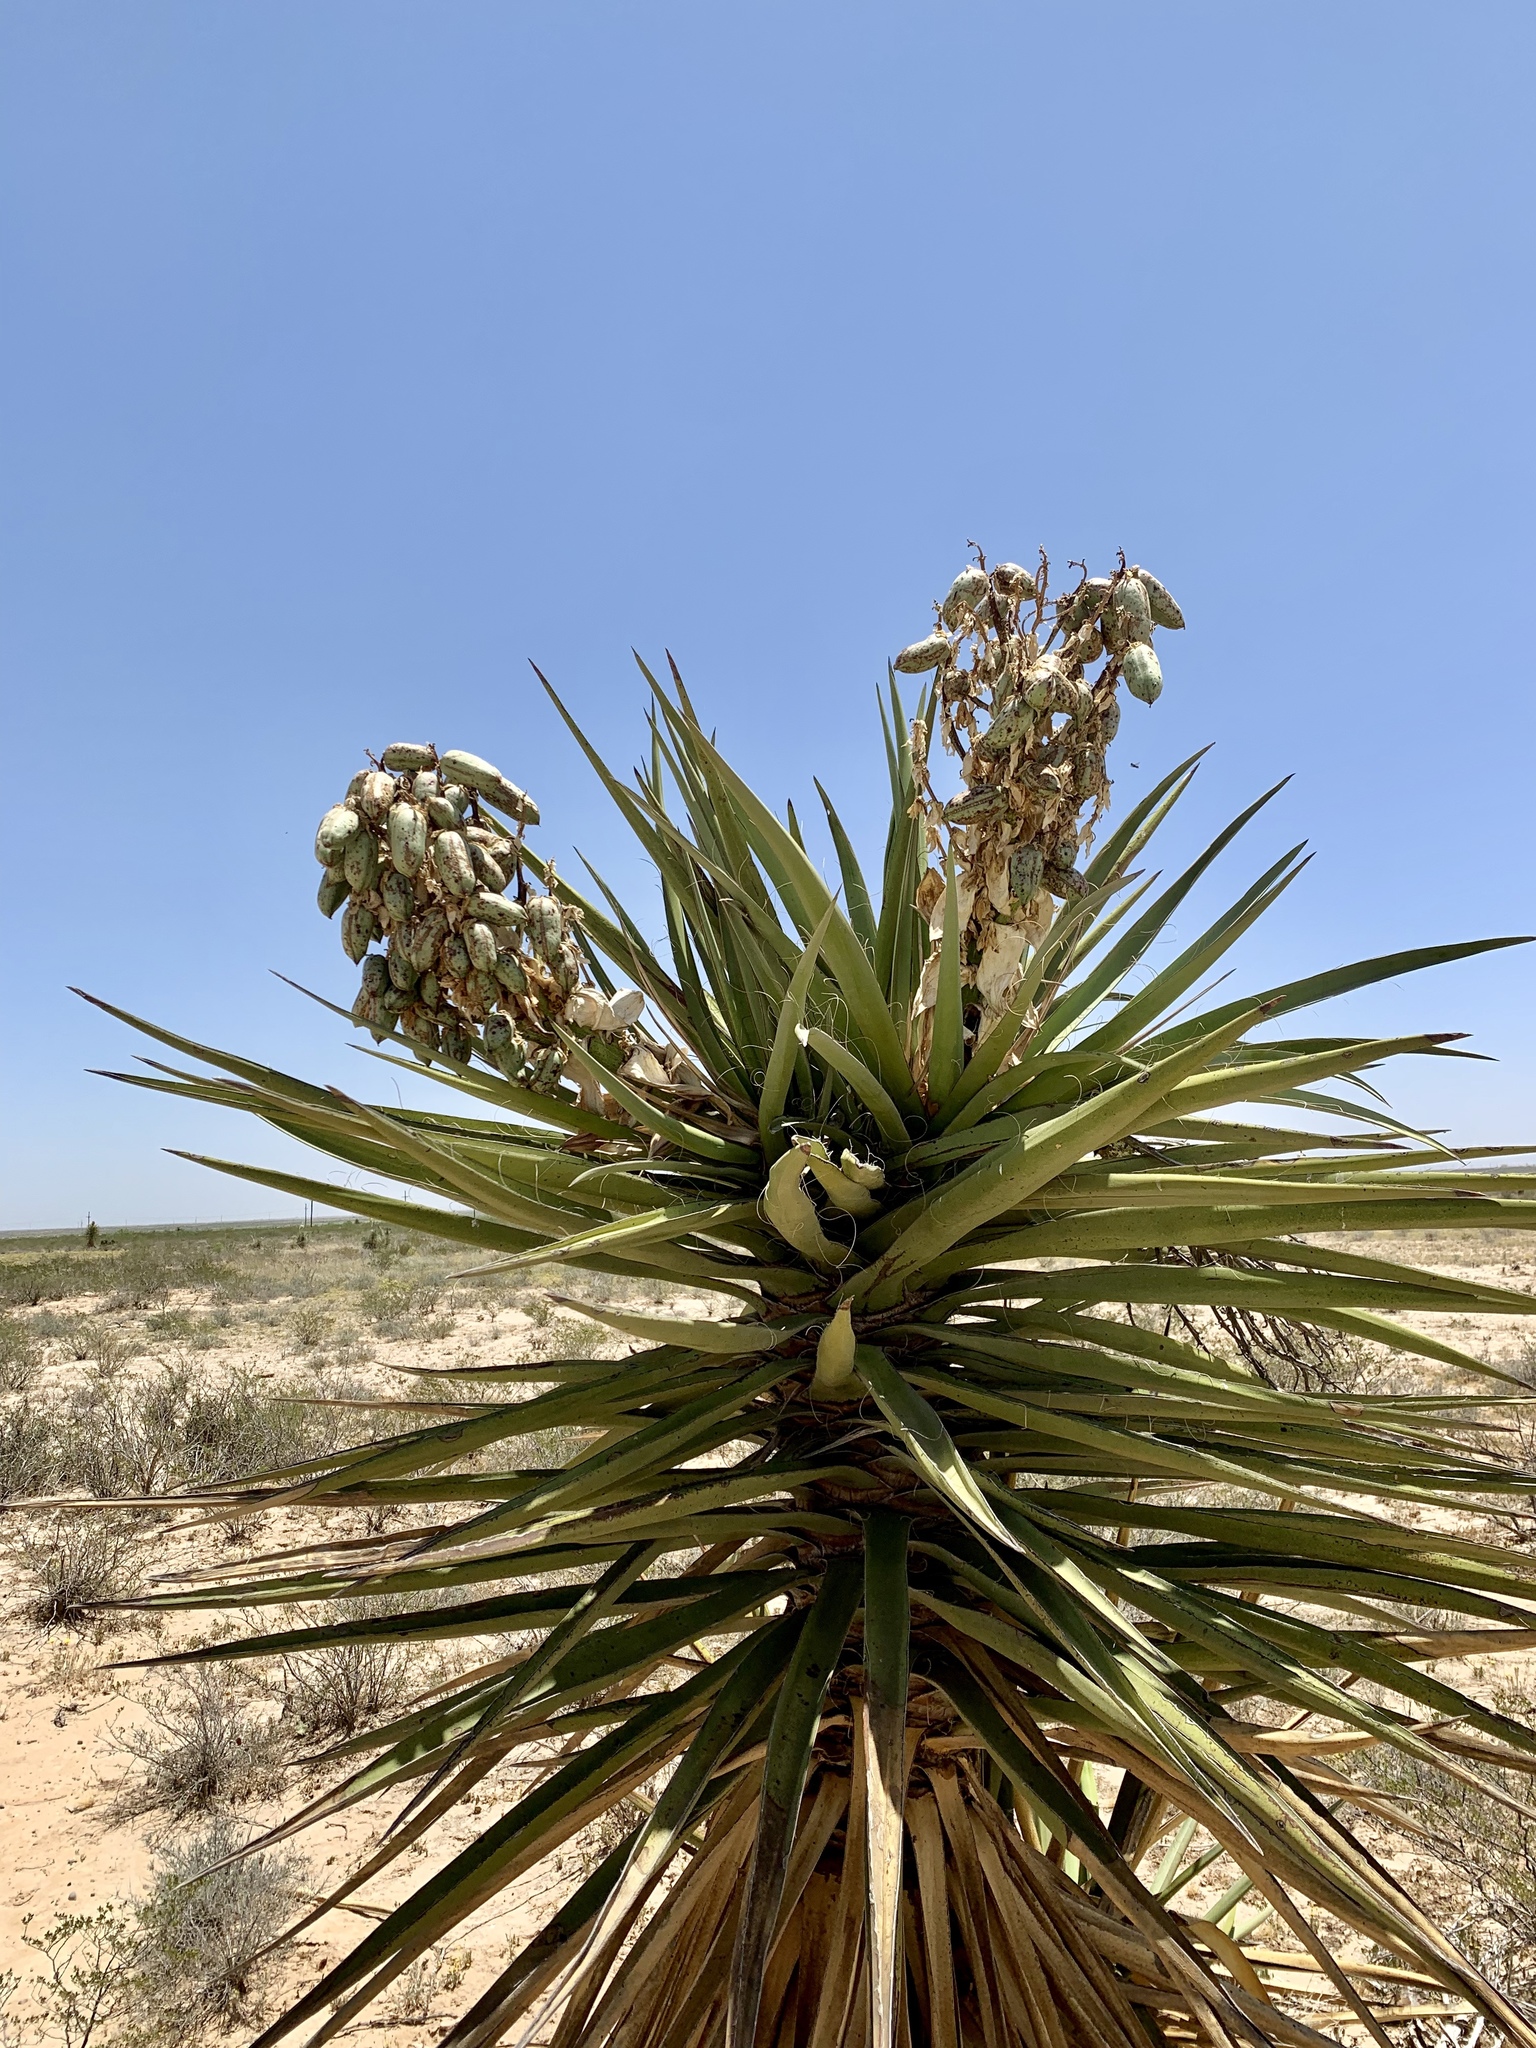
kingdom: Plantae
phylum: Tracheophyta
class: Liliopsida
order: Asparagales
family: Asparagaceae
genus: Yucca
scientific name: Yucca treculiana
